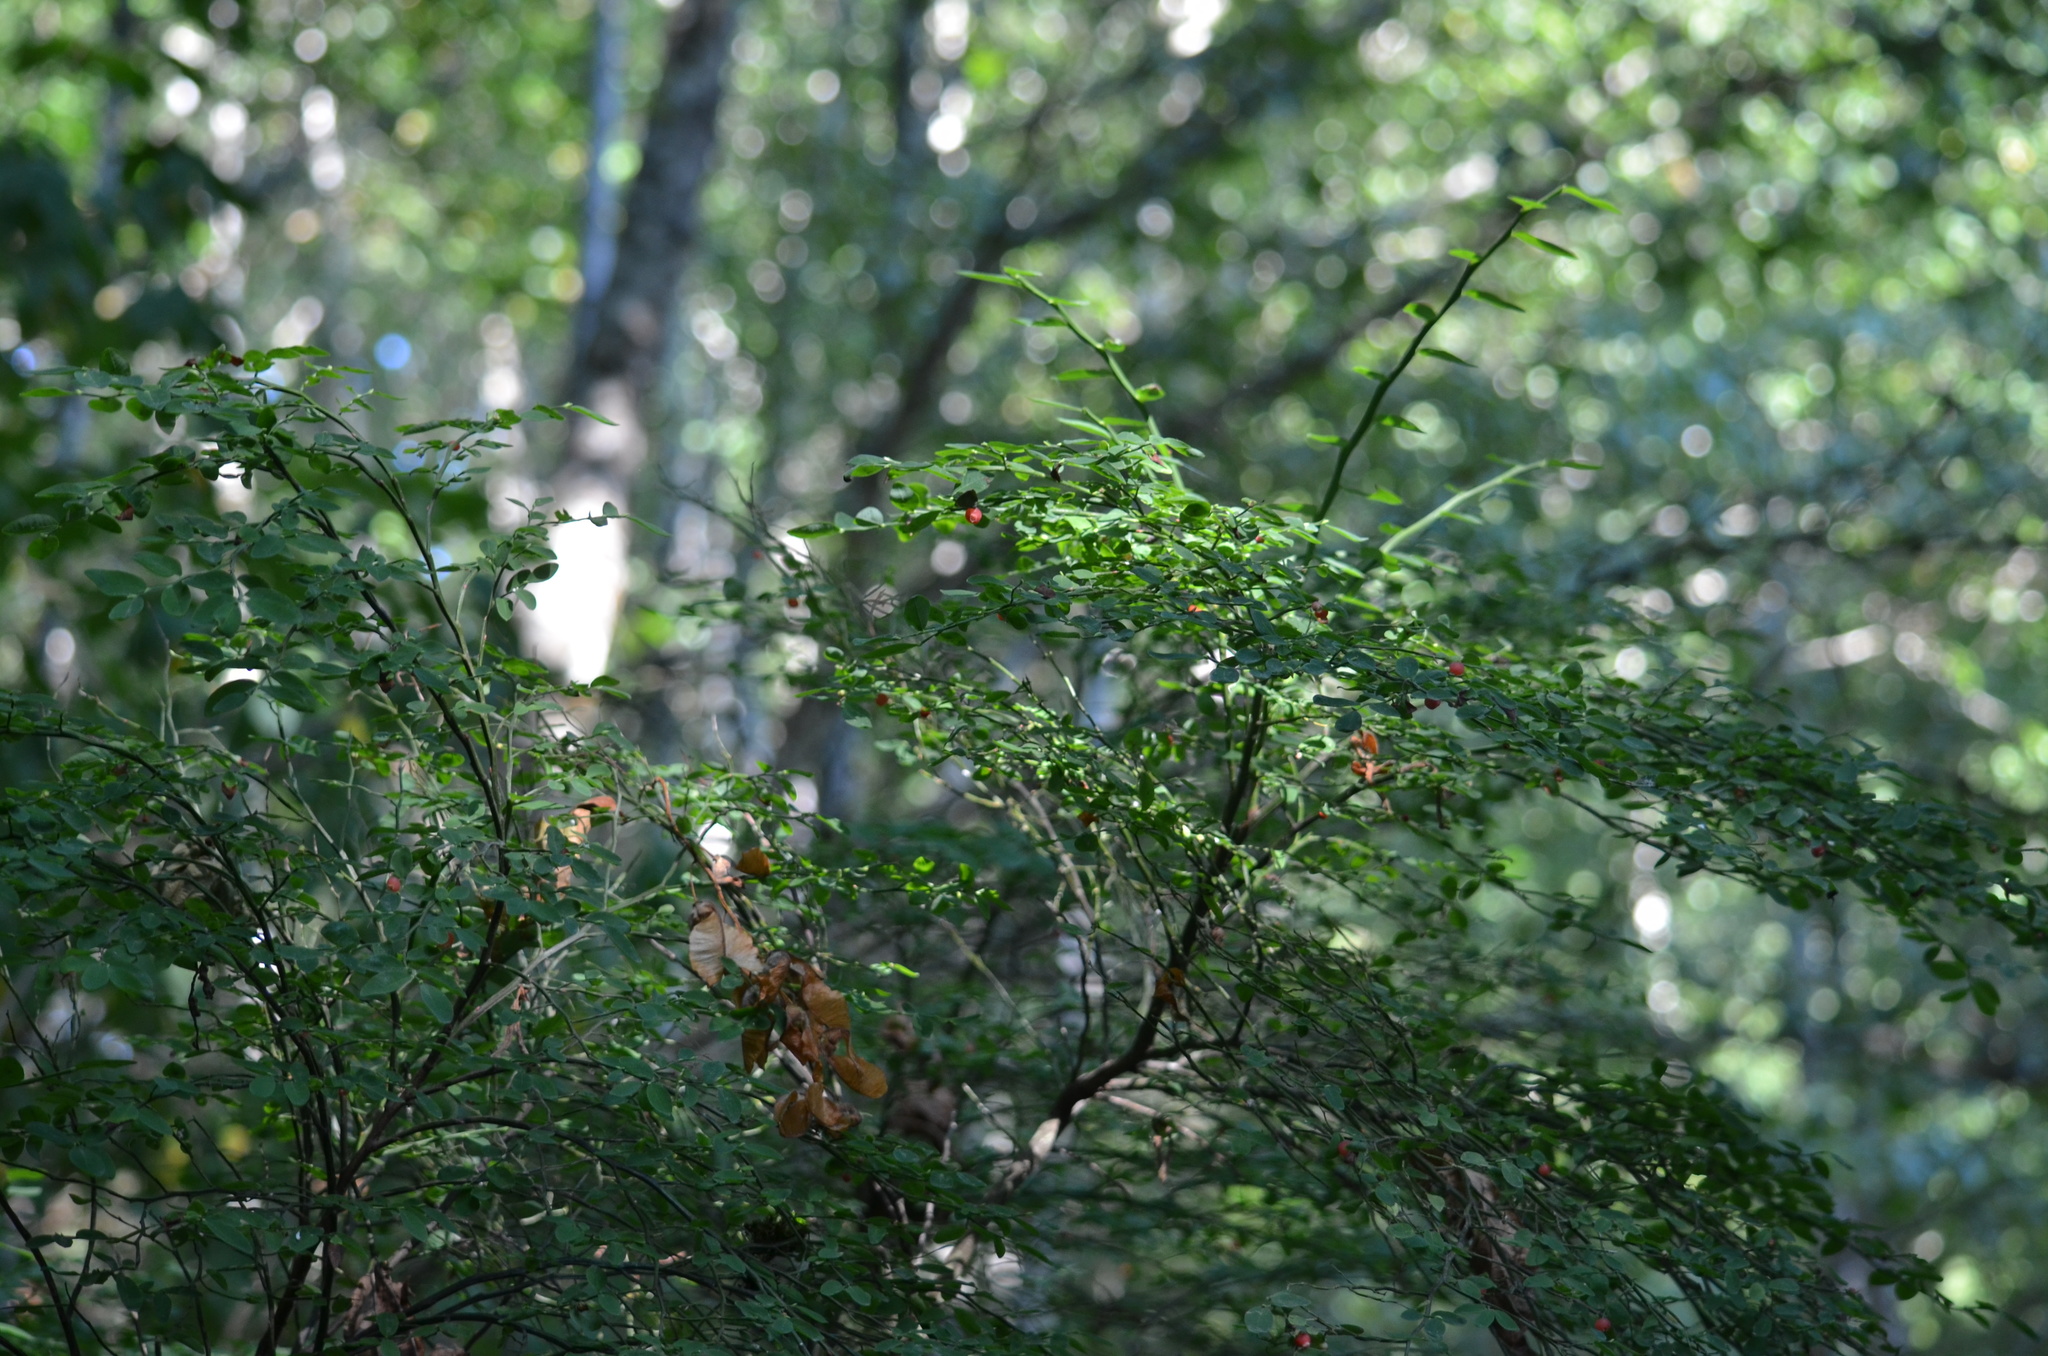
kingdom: Plantae
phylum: Tracheophyta
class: Magnoliopsida
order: Ericales
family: Ericaceae
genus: Vaccinium
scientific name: Vaccinium parvifolium
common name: Red-huckleberry
